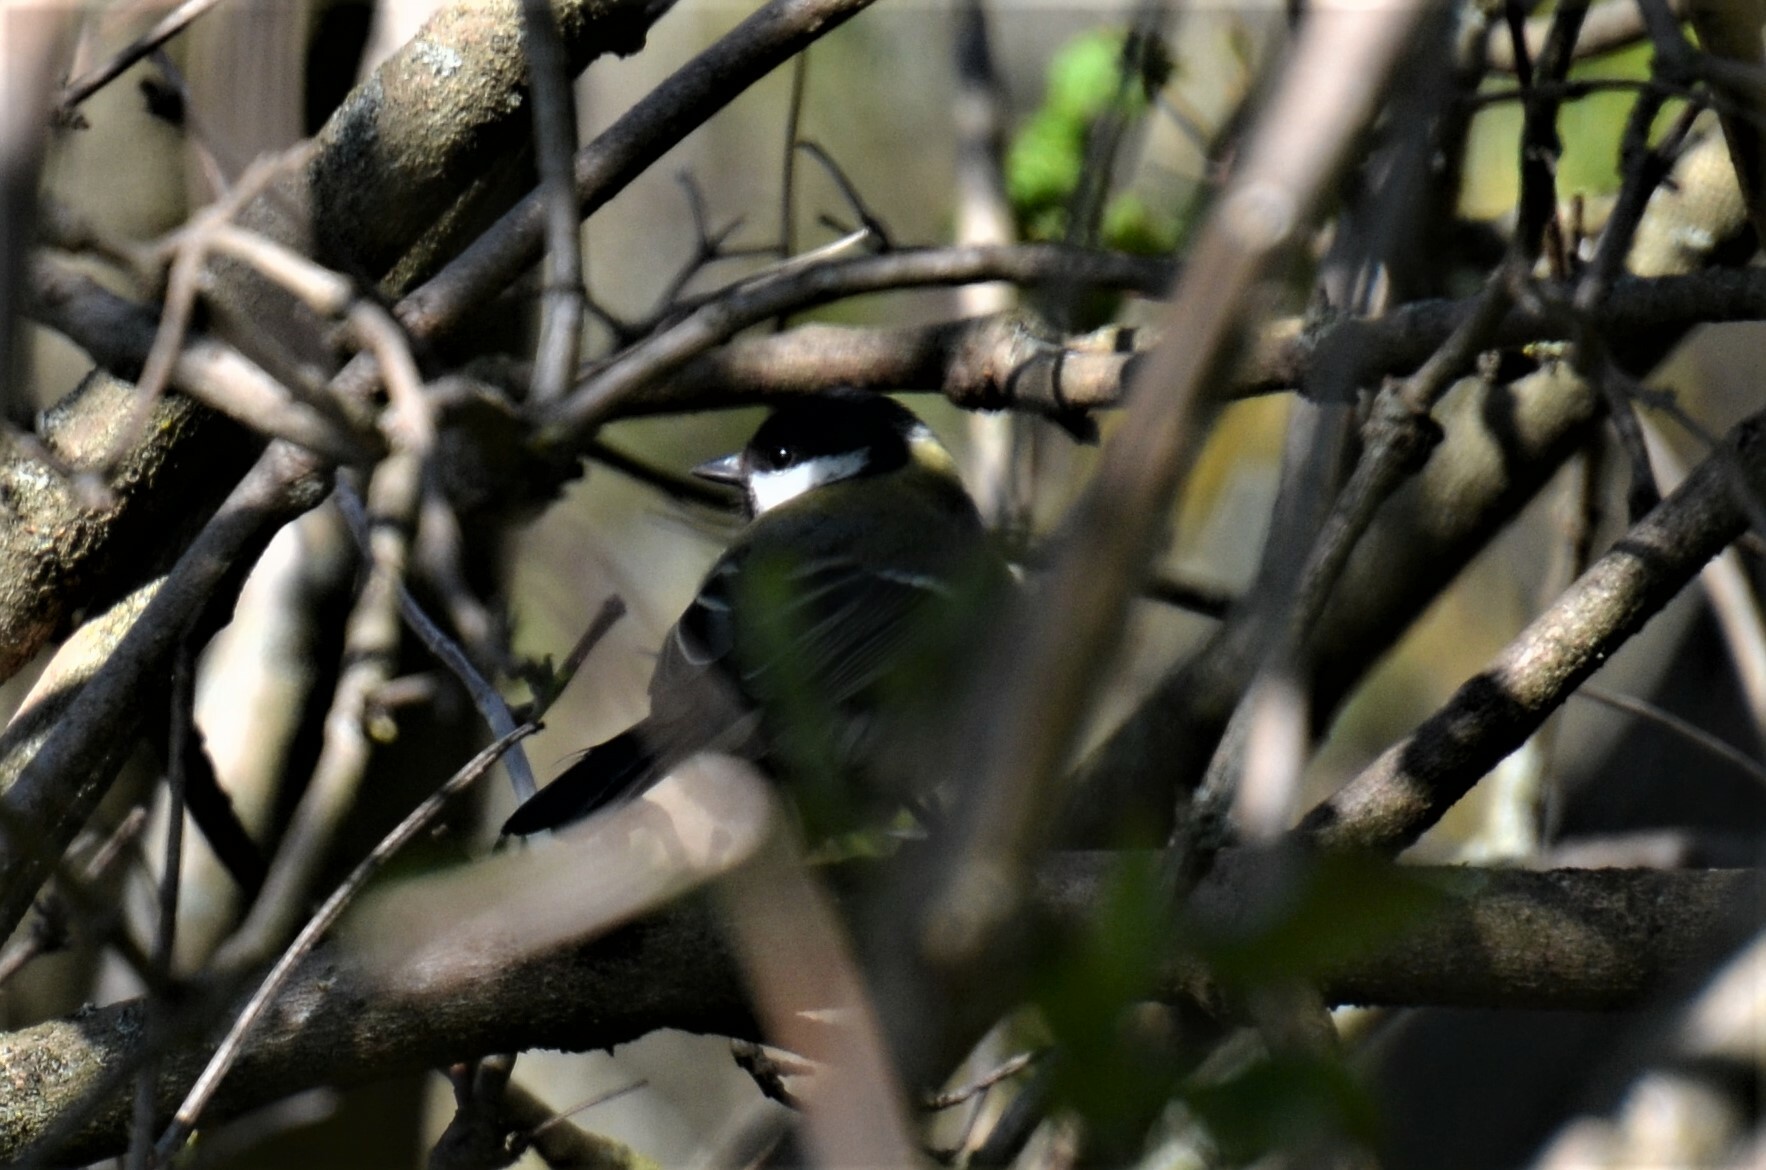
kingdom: Animalia
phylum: Chordata
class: Aves
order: Passeriformes
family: Paridae
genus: Parus
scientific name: Parus major
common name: Great tit
